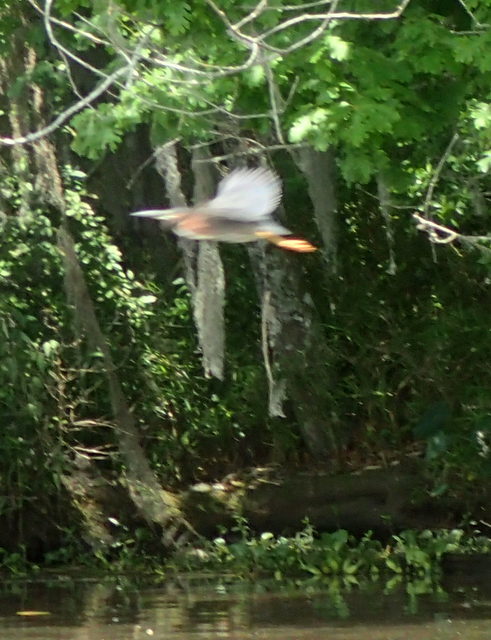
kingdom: Animalia
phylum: Chordata
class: Aves
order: Pelecaniformes
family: Ardeidae
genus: Butorides
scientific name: Butorides virescens
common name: Green heron
